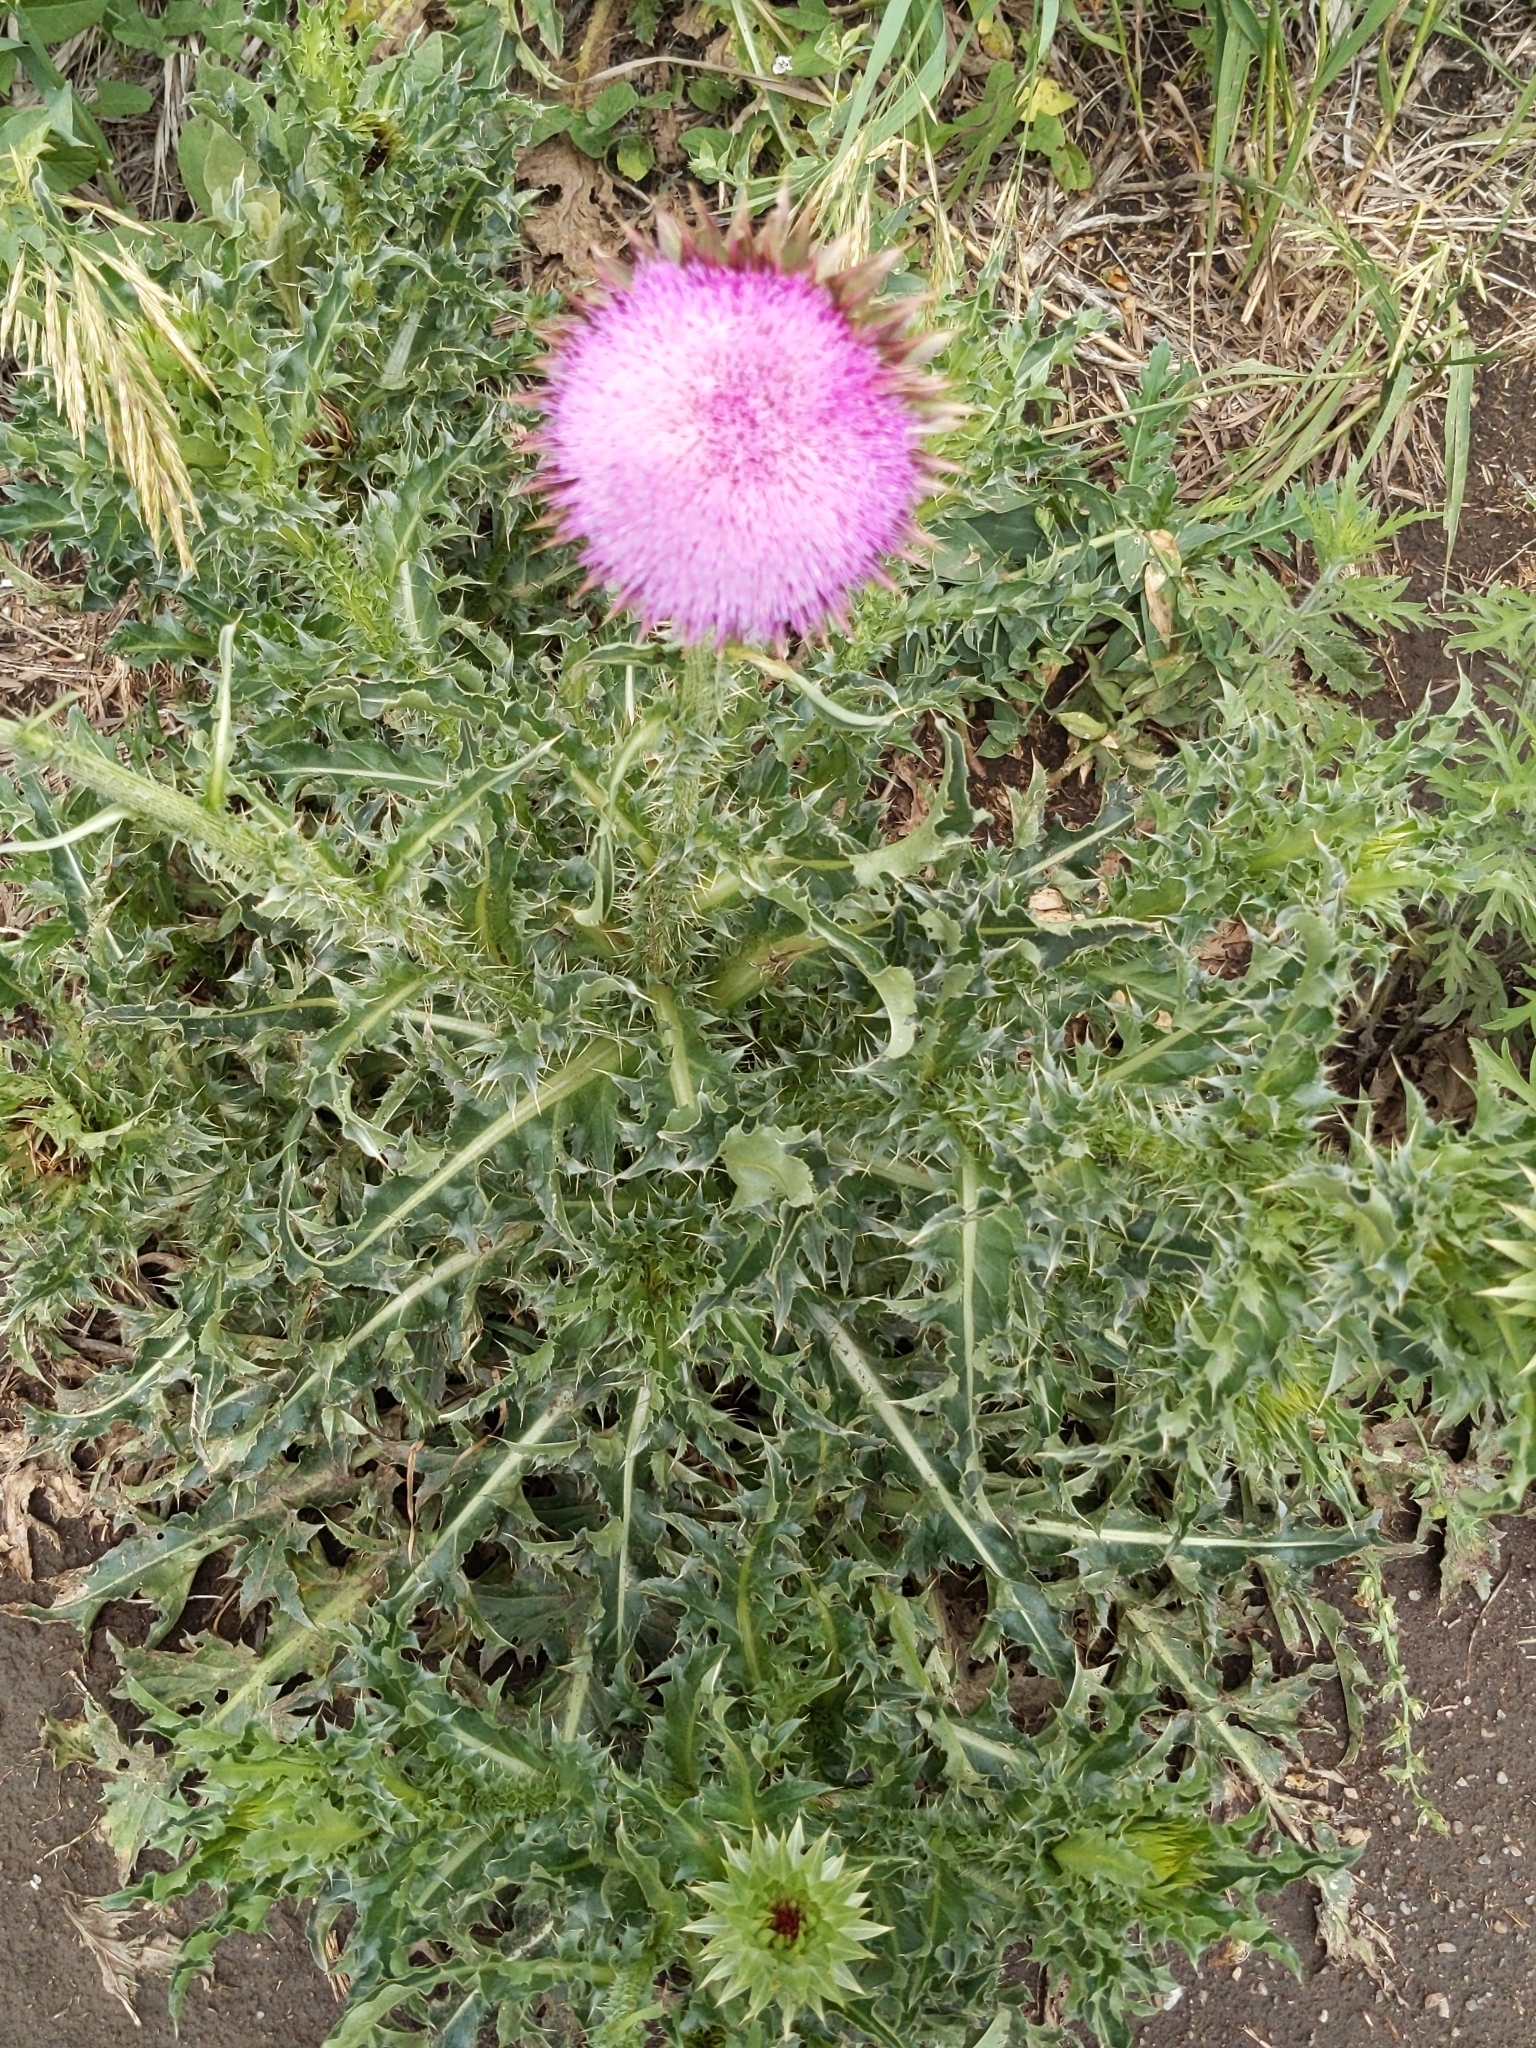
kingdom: Plantae
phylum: Tracheophyta
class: Magnoliopsida
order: Asterales
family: Asteraceae
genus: Carduus
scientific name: Carduus nutans
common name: Musk thistle
